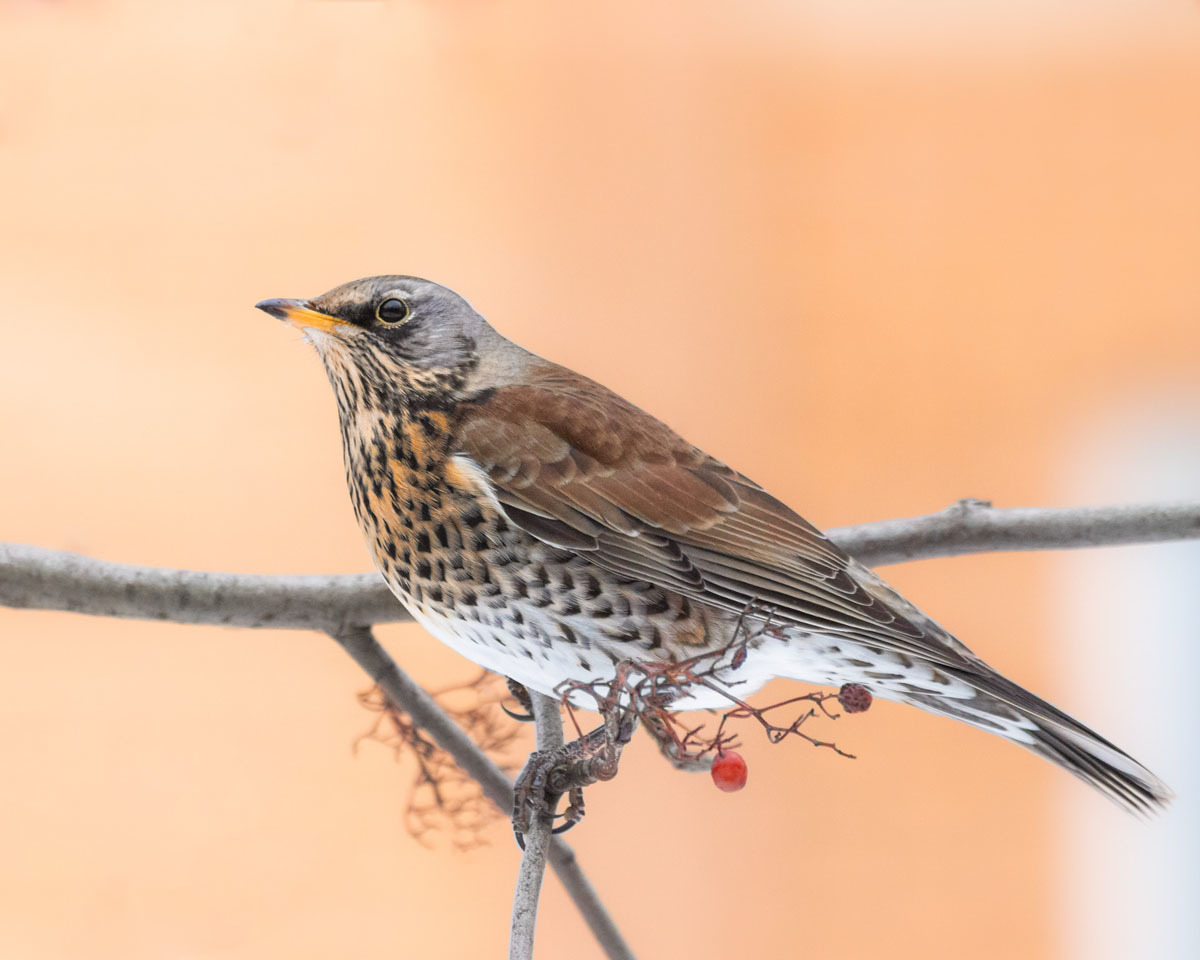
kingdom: Animalia
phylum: Chordata
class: Aves
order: Passeriformes
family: Turdidae
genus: Turdus
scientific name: Turdus pilaris
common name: Fieldfare
